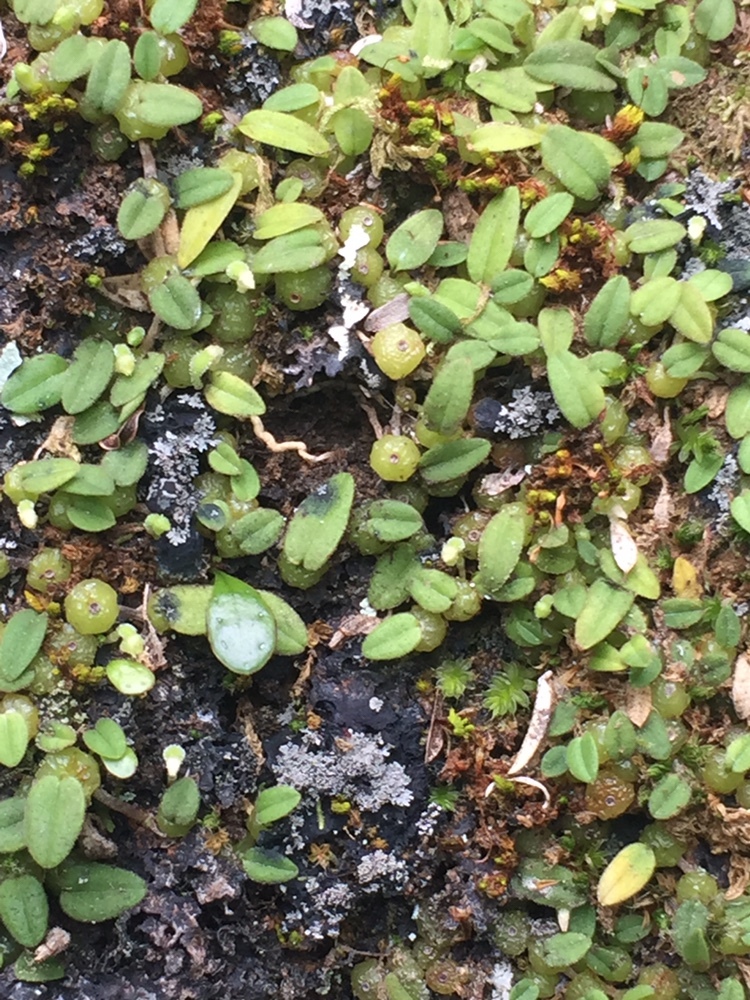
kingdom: Plantae
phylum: Tracheophyta
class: Liliopsida
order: Asparagales
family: Orchidaceae
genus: Bulbophyllum
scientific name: Bulbophyllum pygmaeum
